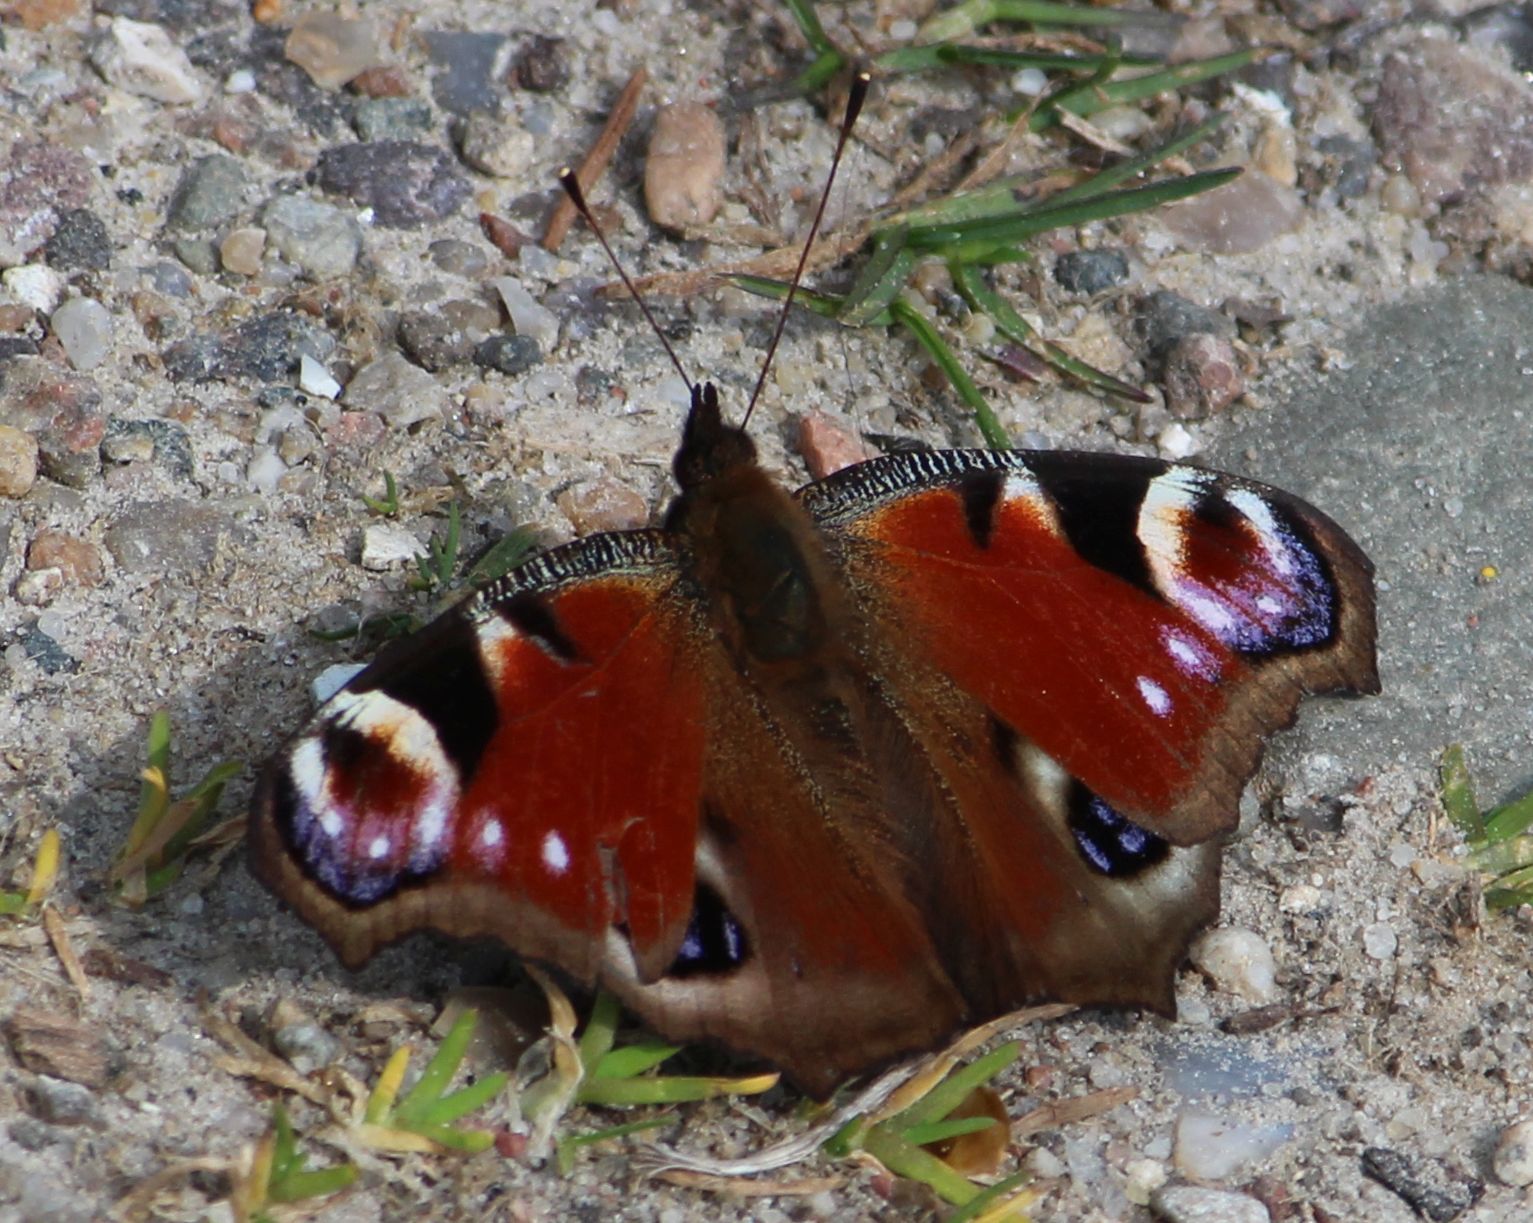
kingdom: Animalia
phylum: Arthropoda
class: Insecta
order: Lepidoptera
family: Nymphalidae
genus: Aglais
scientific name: Aglais io
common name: Peacock
